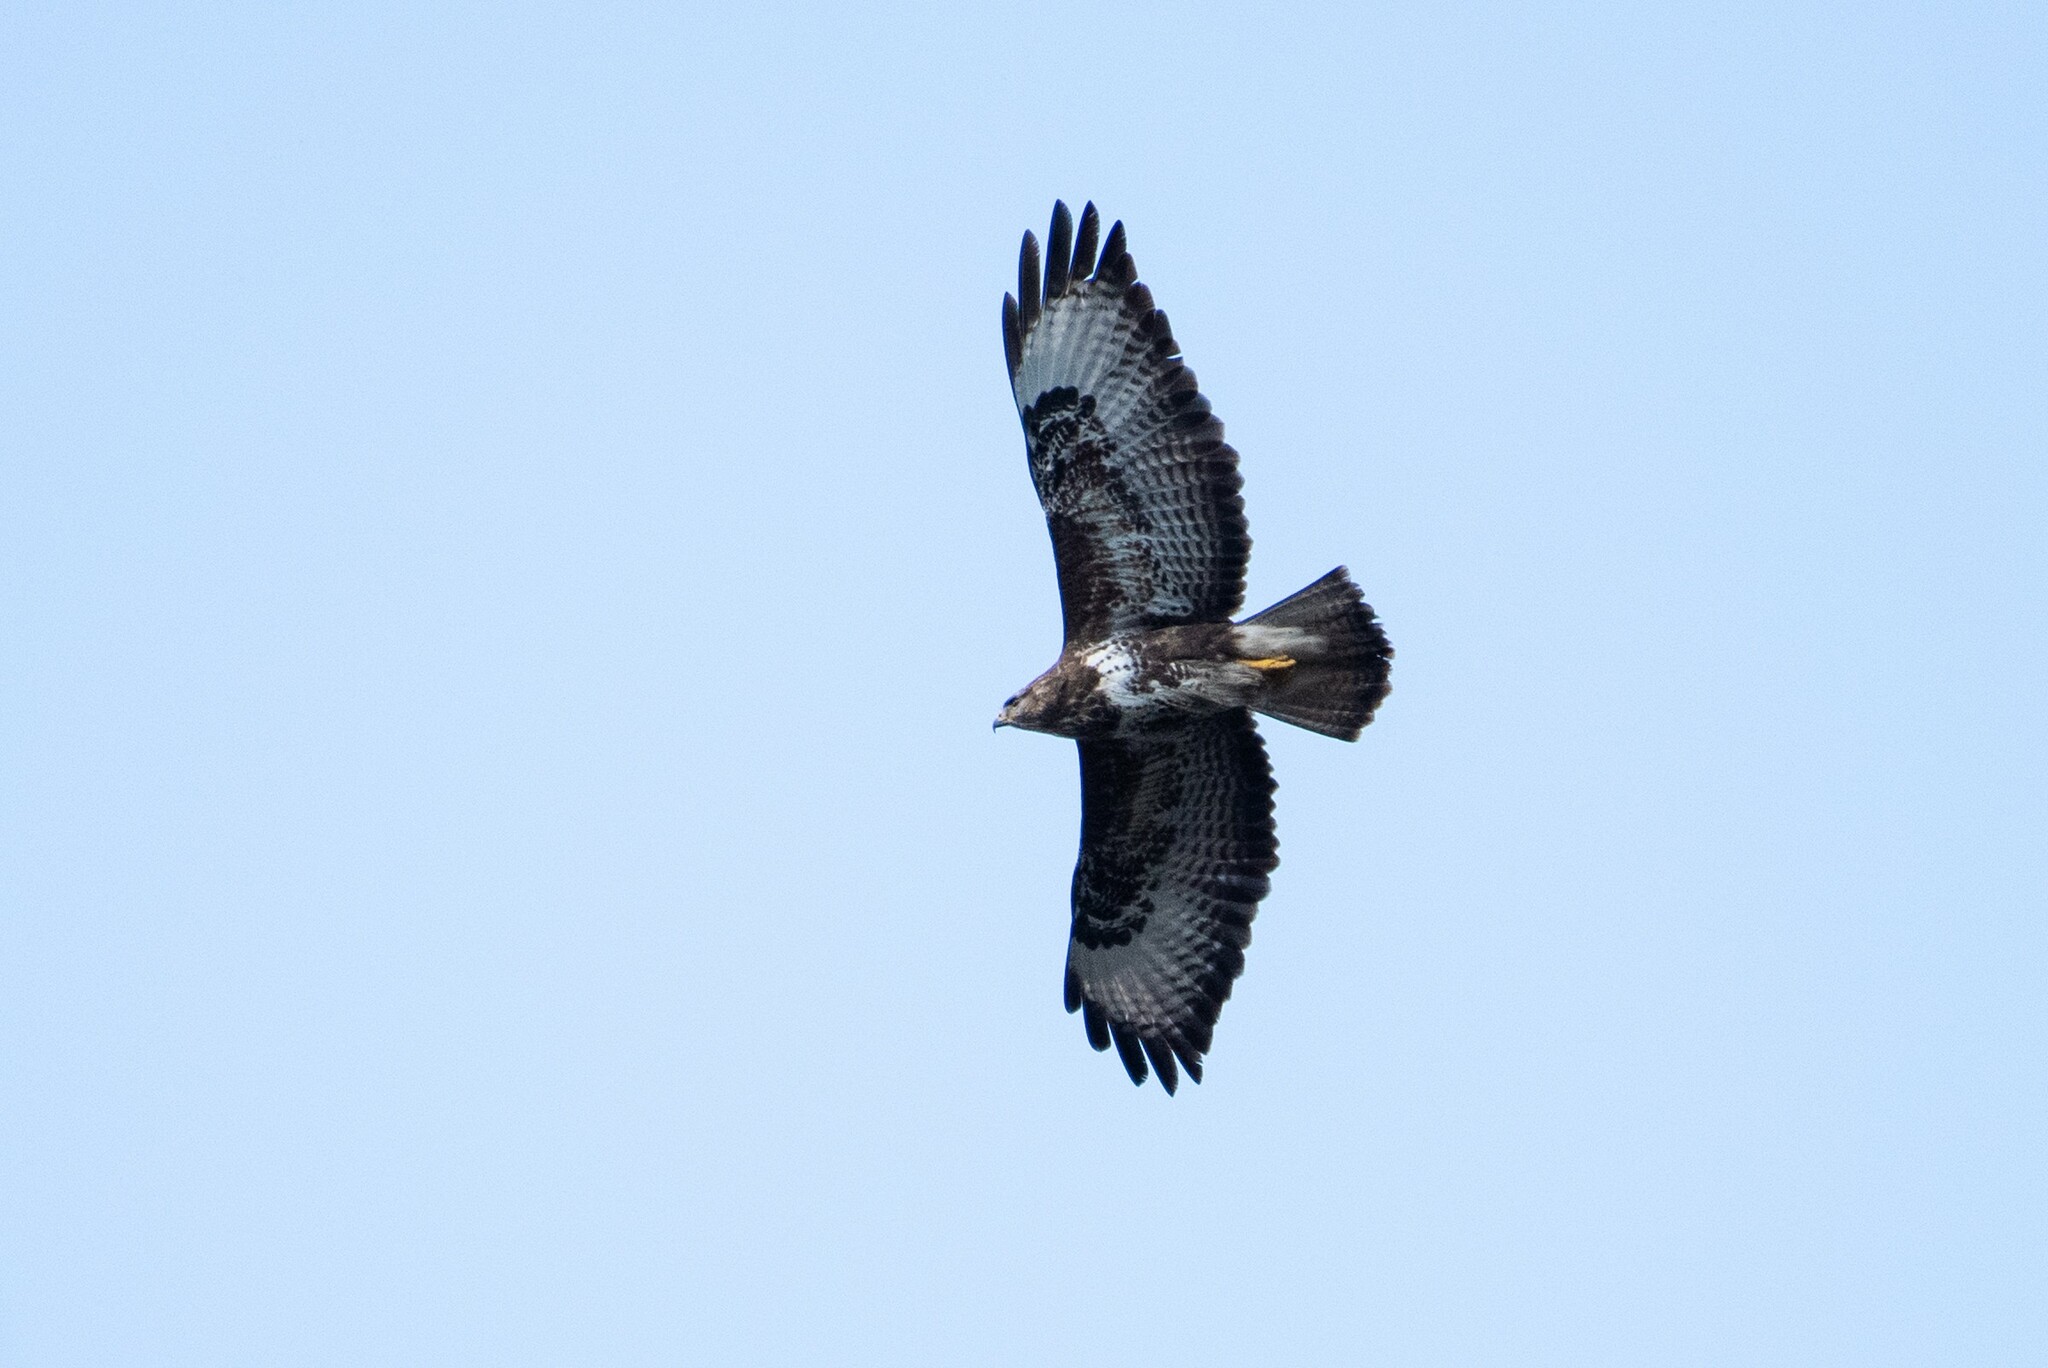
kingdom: Animalia
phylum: Chordata
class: Aves
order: Accipitriformes
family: Accipitridae
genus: Buteo
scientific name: Buteo buteo
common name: Common buzzard
